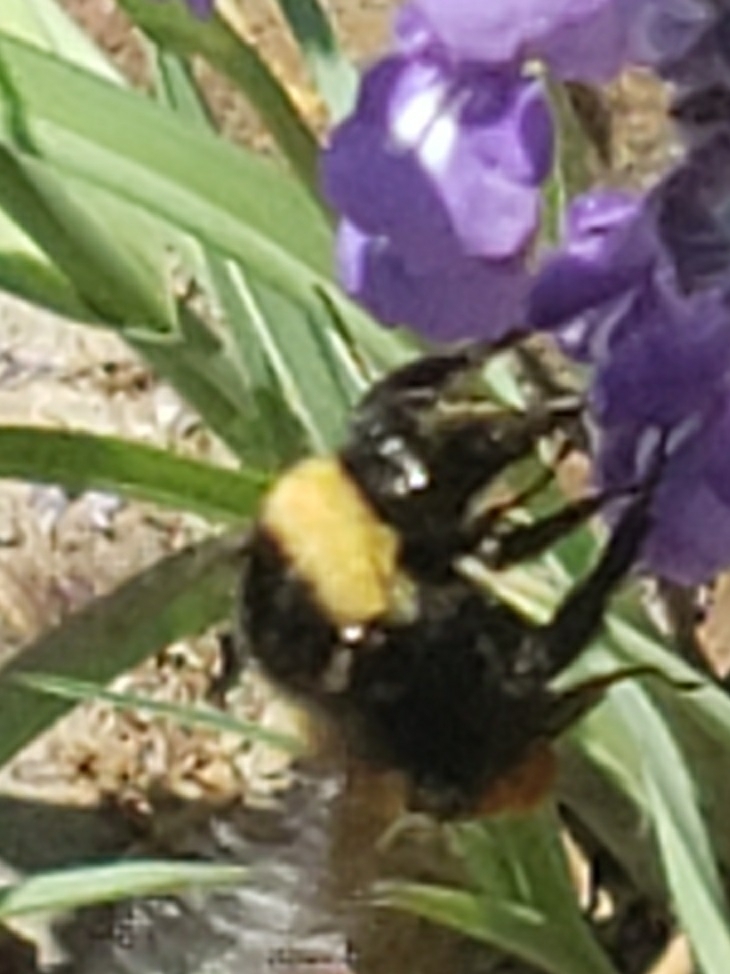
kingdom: Animalia
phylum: Arthropoda
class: Insecta
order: Hymenoptera
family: Apidae
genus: Bombus
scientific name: Bombus pensylvanicus
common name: Bumble bee
